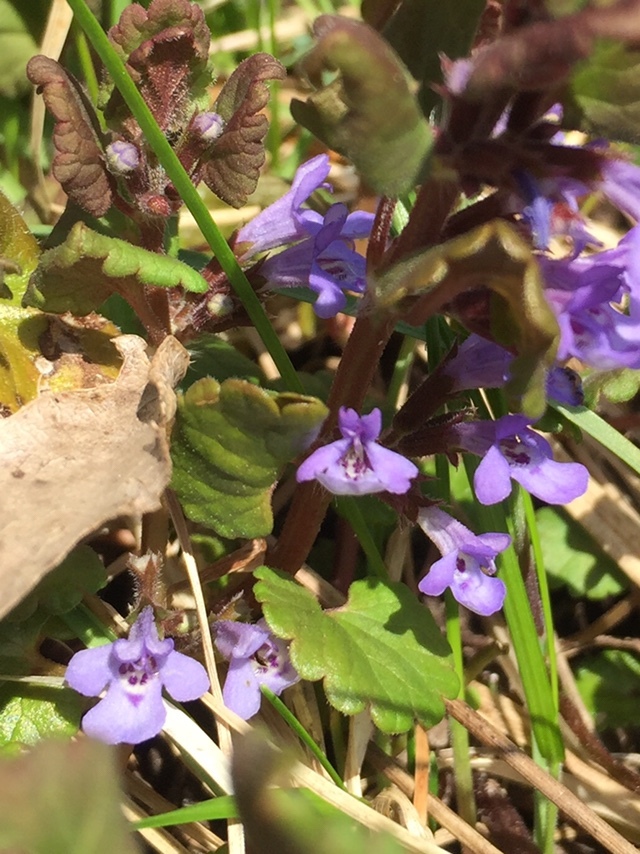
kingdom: Plantae
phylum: Tracheophyta
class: Magnoliopsida
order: Lamiales
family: Lamiaceae
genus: Glechoma
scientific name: Glechoma hederacea
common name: Ground ivy
